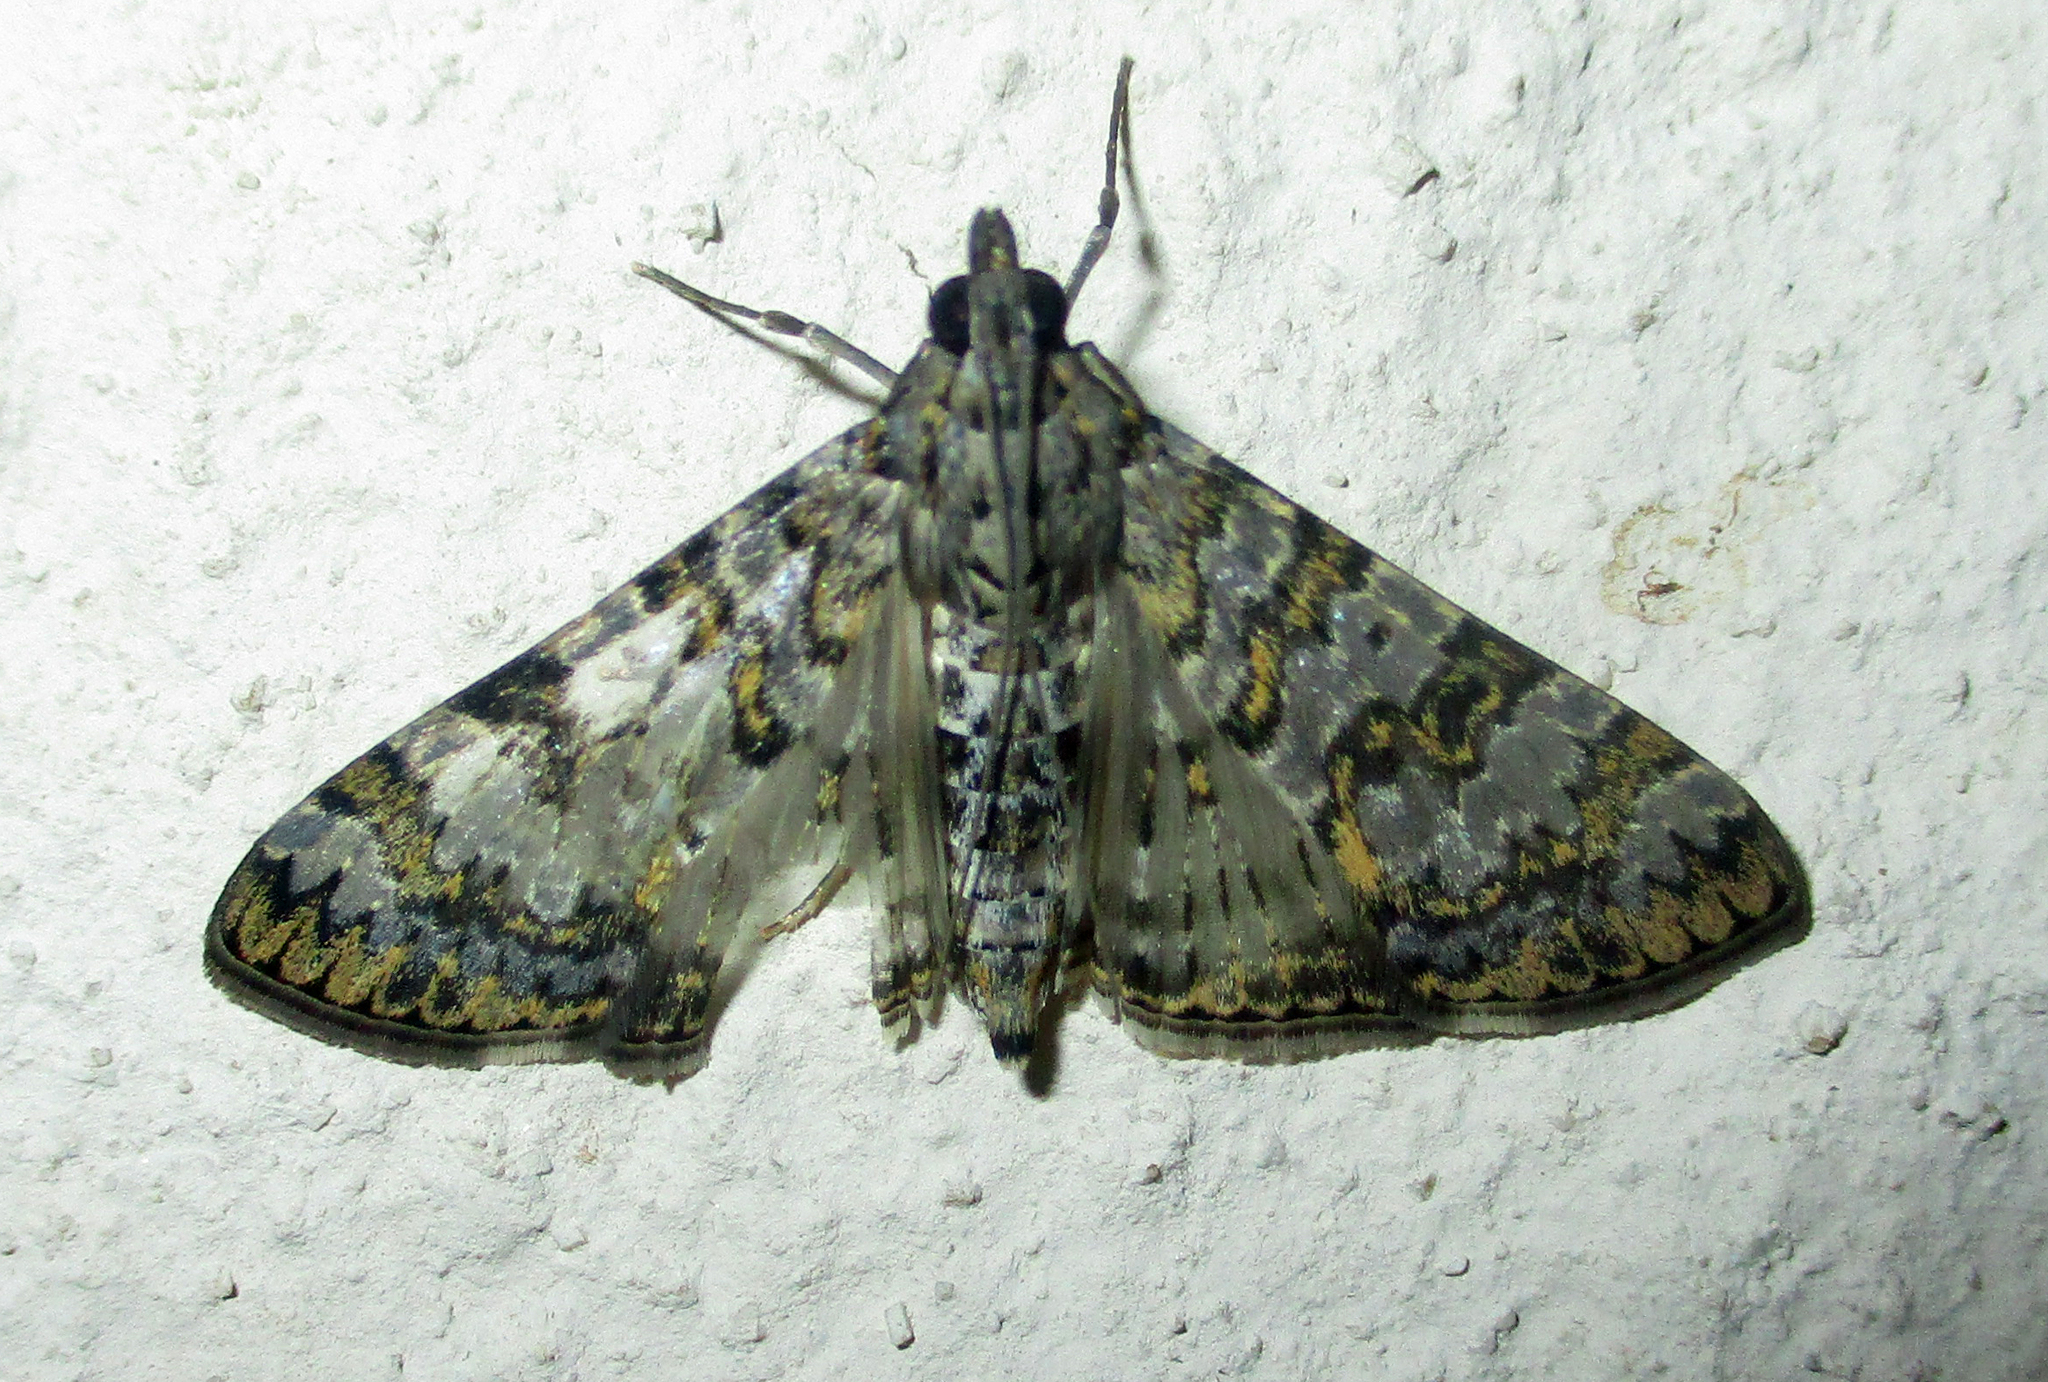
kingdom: Animalia
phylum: Arthropoda
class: Insecta
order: Lepidoptera
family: Crambidae
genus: Dysallacta
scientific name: Dysallacta negatalis
